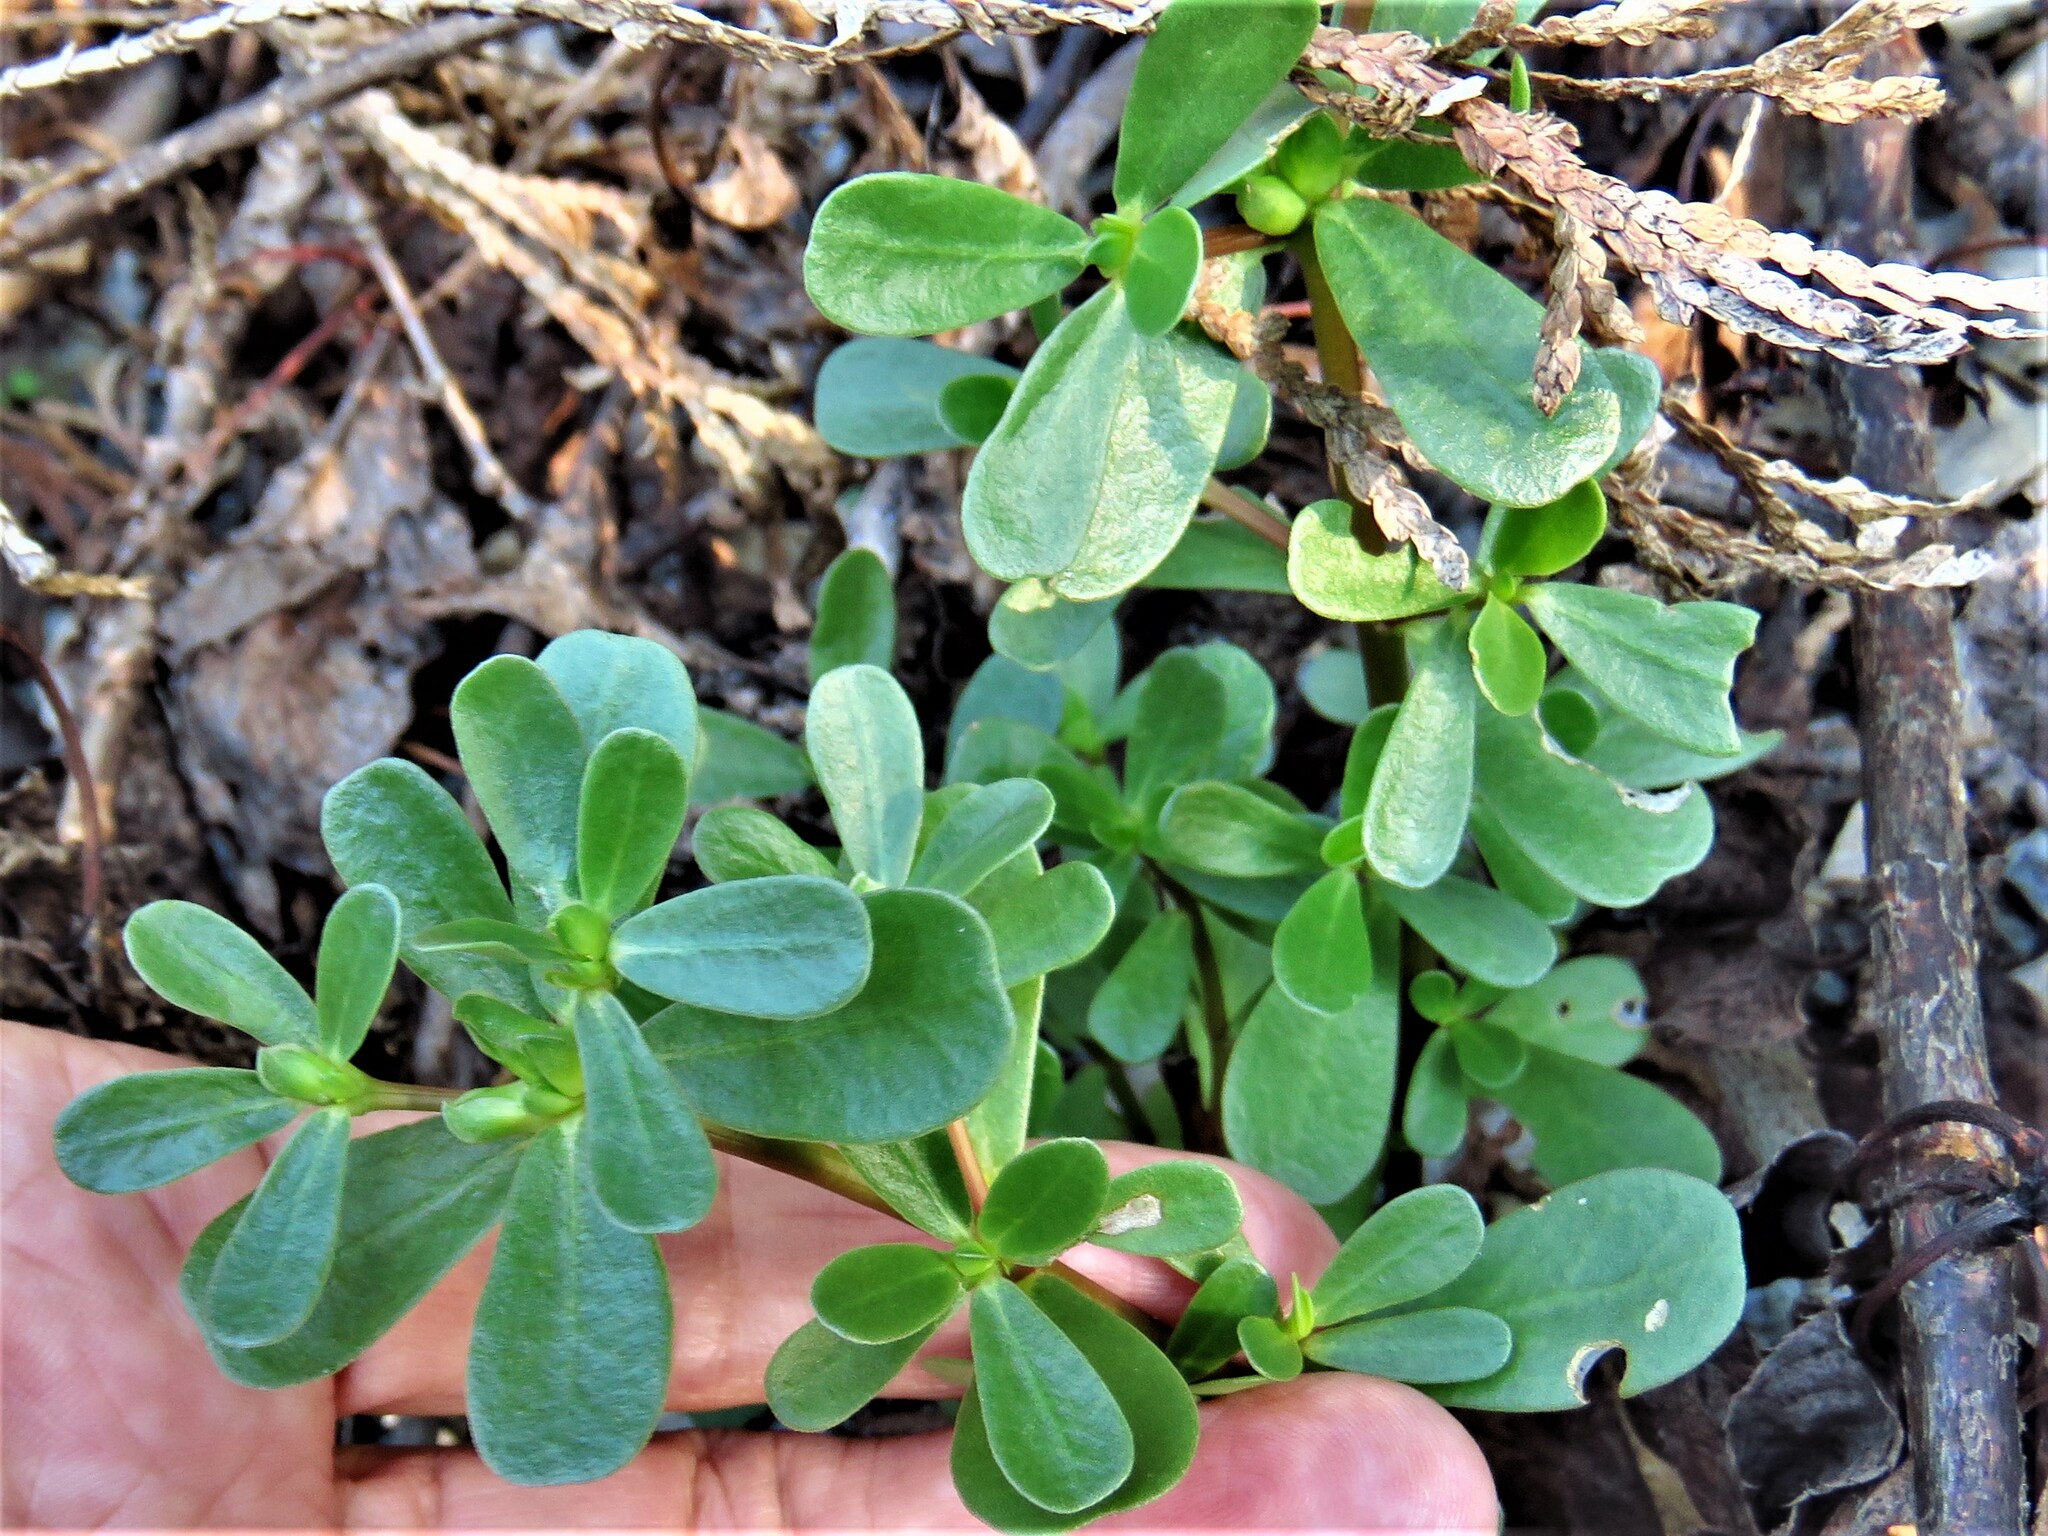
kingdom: Plantae
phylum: Tracheophyta
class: Magnoliopsida
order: Caryophyllales
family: Portulacaceae
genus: Portulaca
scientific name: Portulaca oleracea
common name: Common purslane
